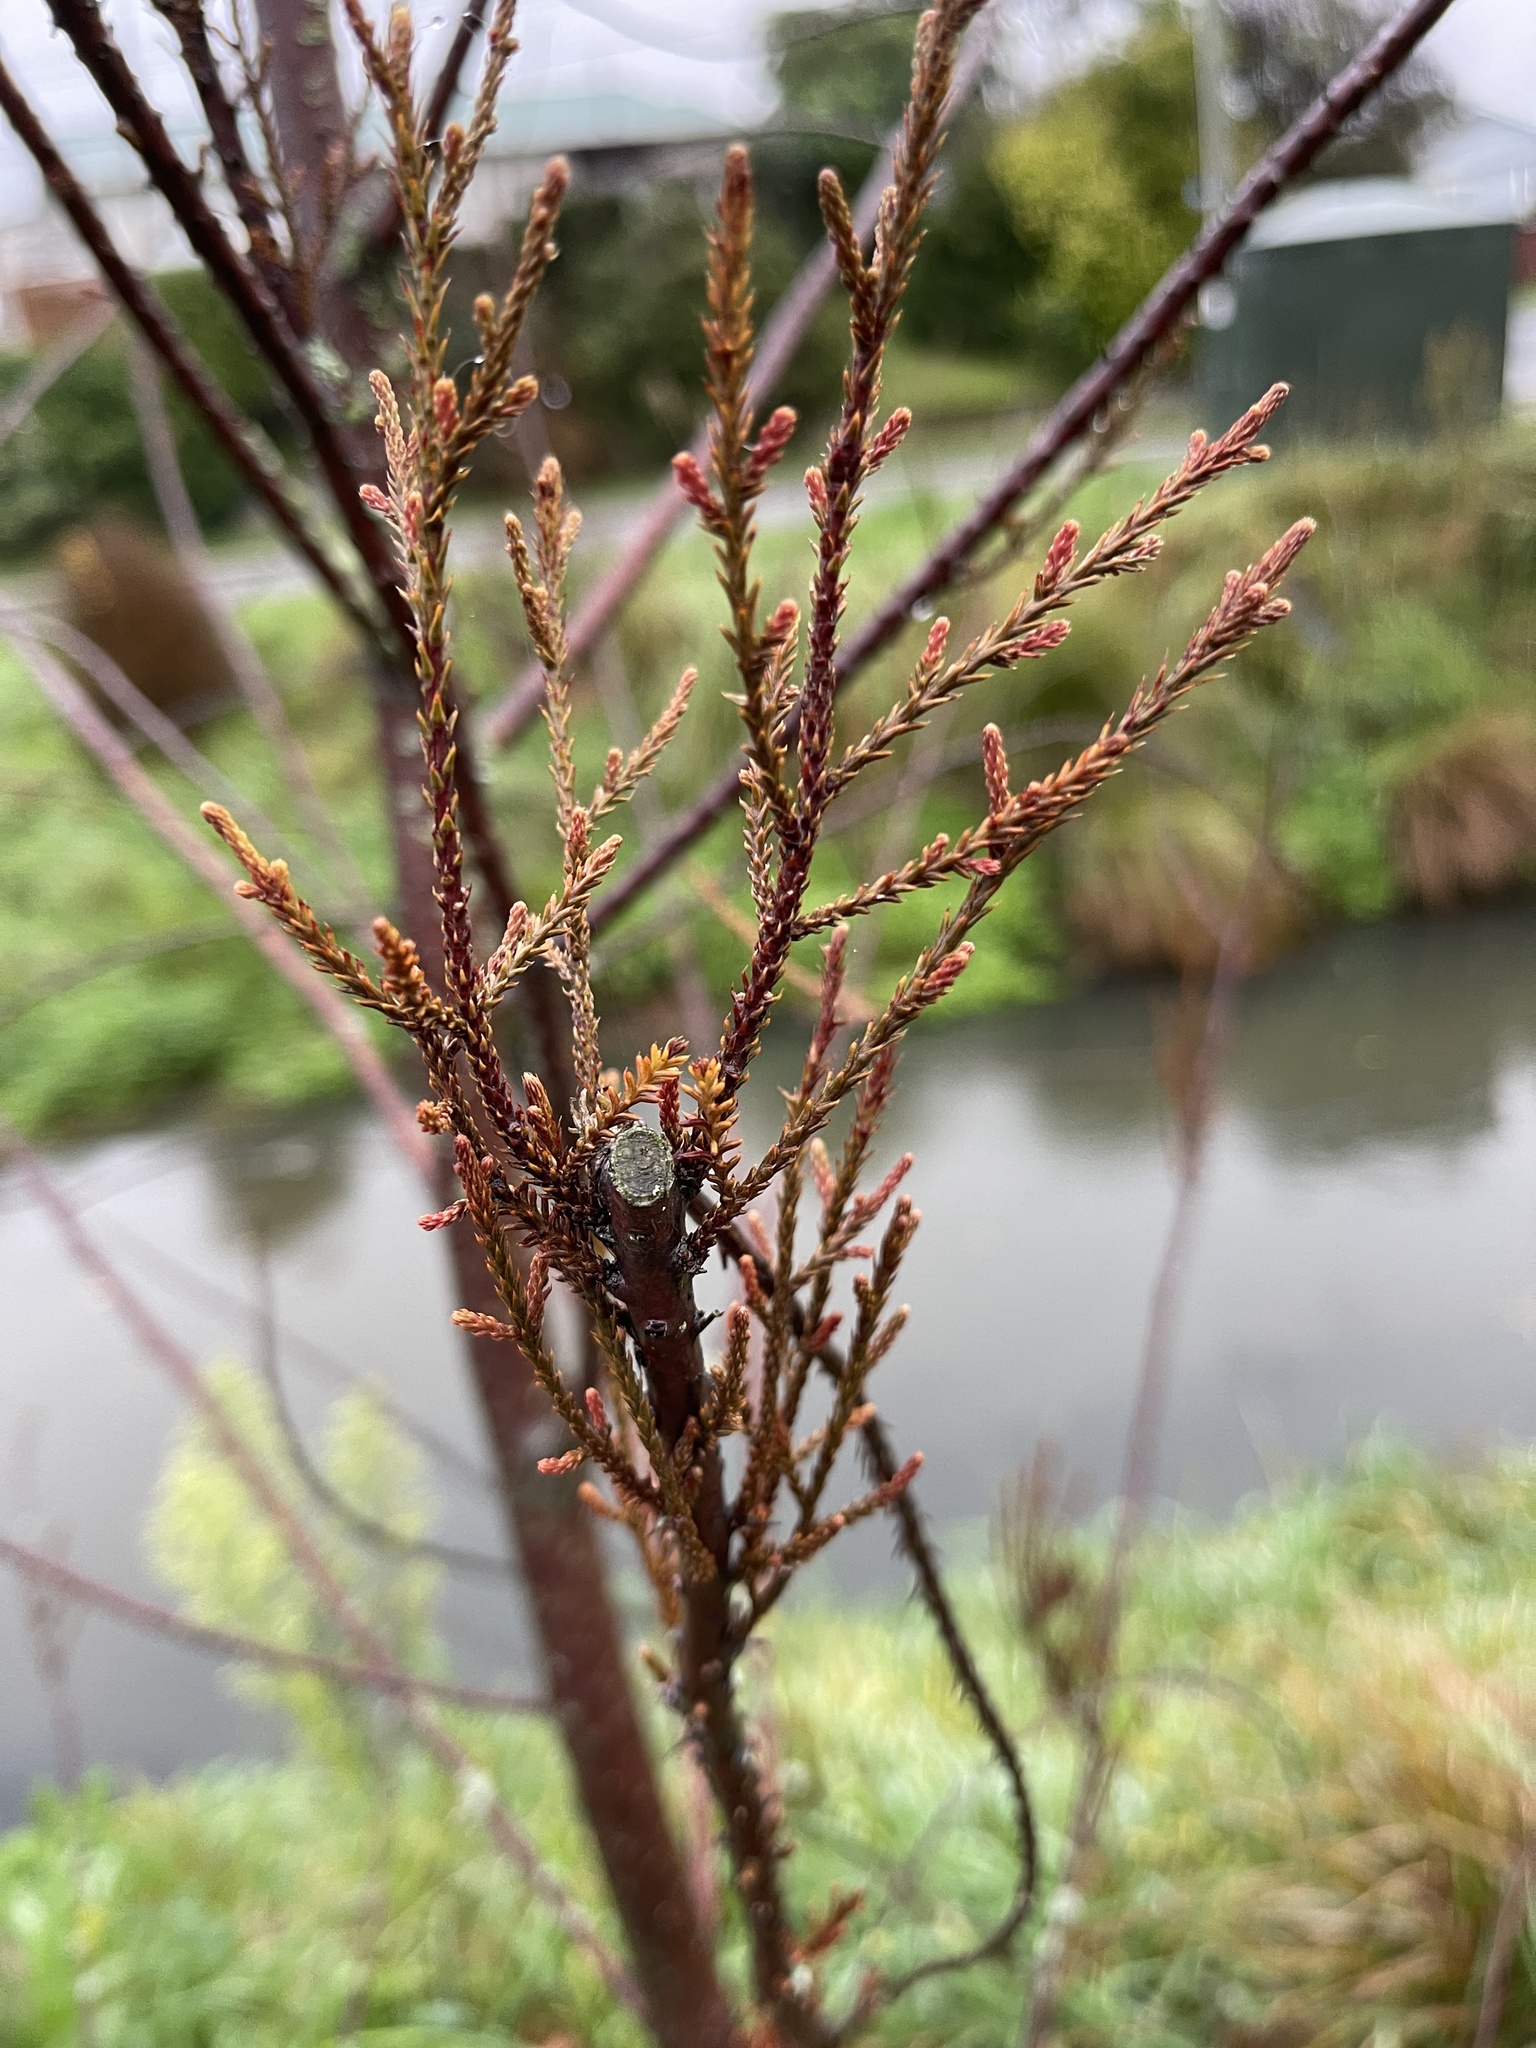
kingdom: Plantae
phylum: Tracheophyta
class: Pinopsida
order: Pinales
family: Podocarpaceae
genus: Dacrycarpus
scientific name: Dacrycarpus dacrydioides
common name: White pine
